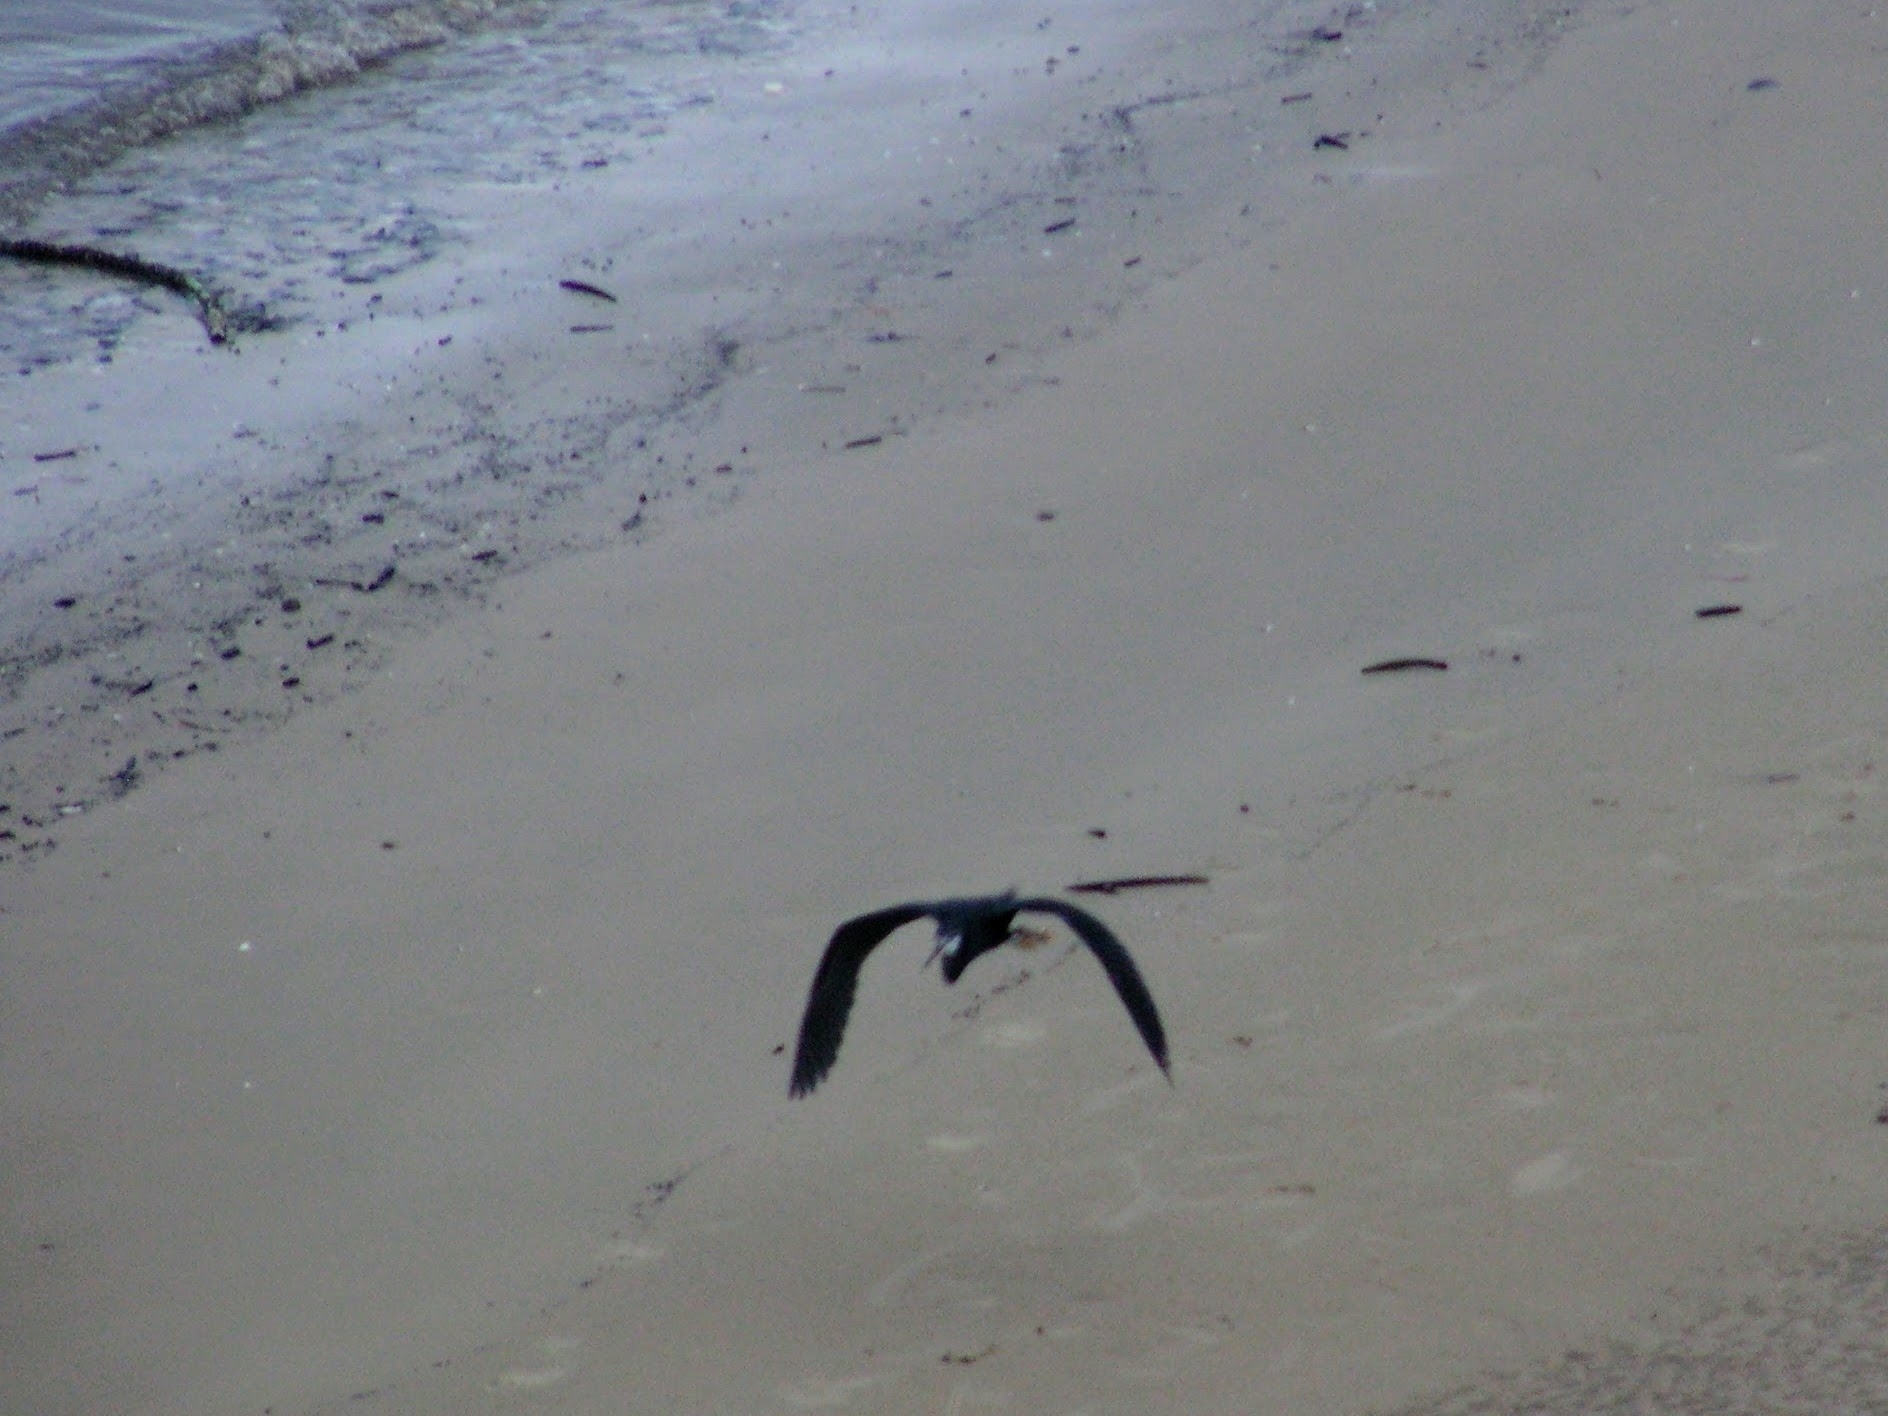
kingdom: Animalia
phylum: Chordata
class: Aves
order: Pelecaniformes
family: Ardeidae
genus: Egretta
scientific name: Egretta gularis
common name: Western reef-heron
